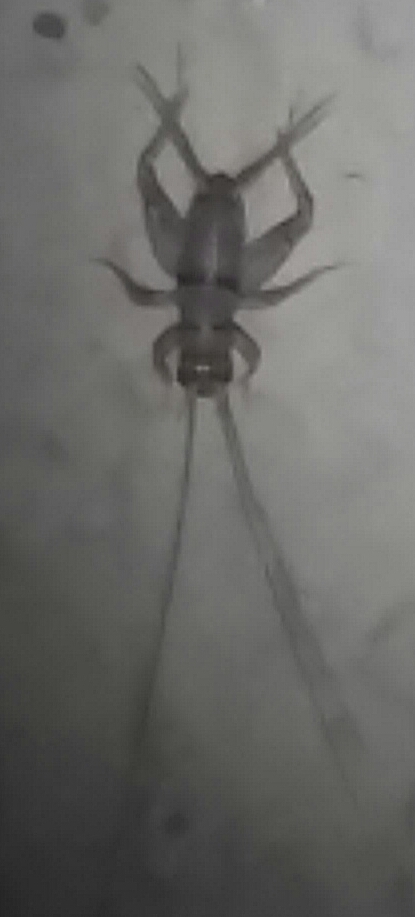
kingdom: Animalia
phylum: Arthropoda
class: Insecta
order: Orthoptera
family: Gryllidae
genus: Gryllodes
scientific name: Gryllodes sigillatus
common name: Tropical house cricket
